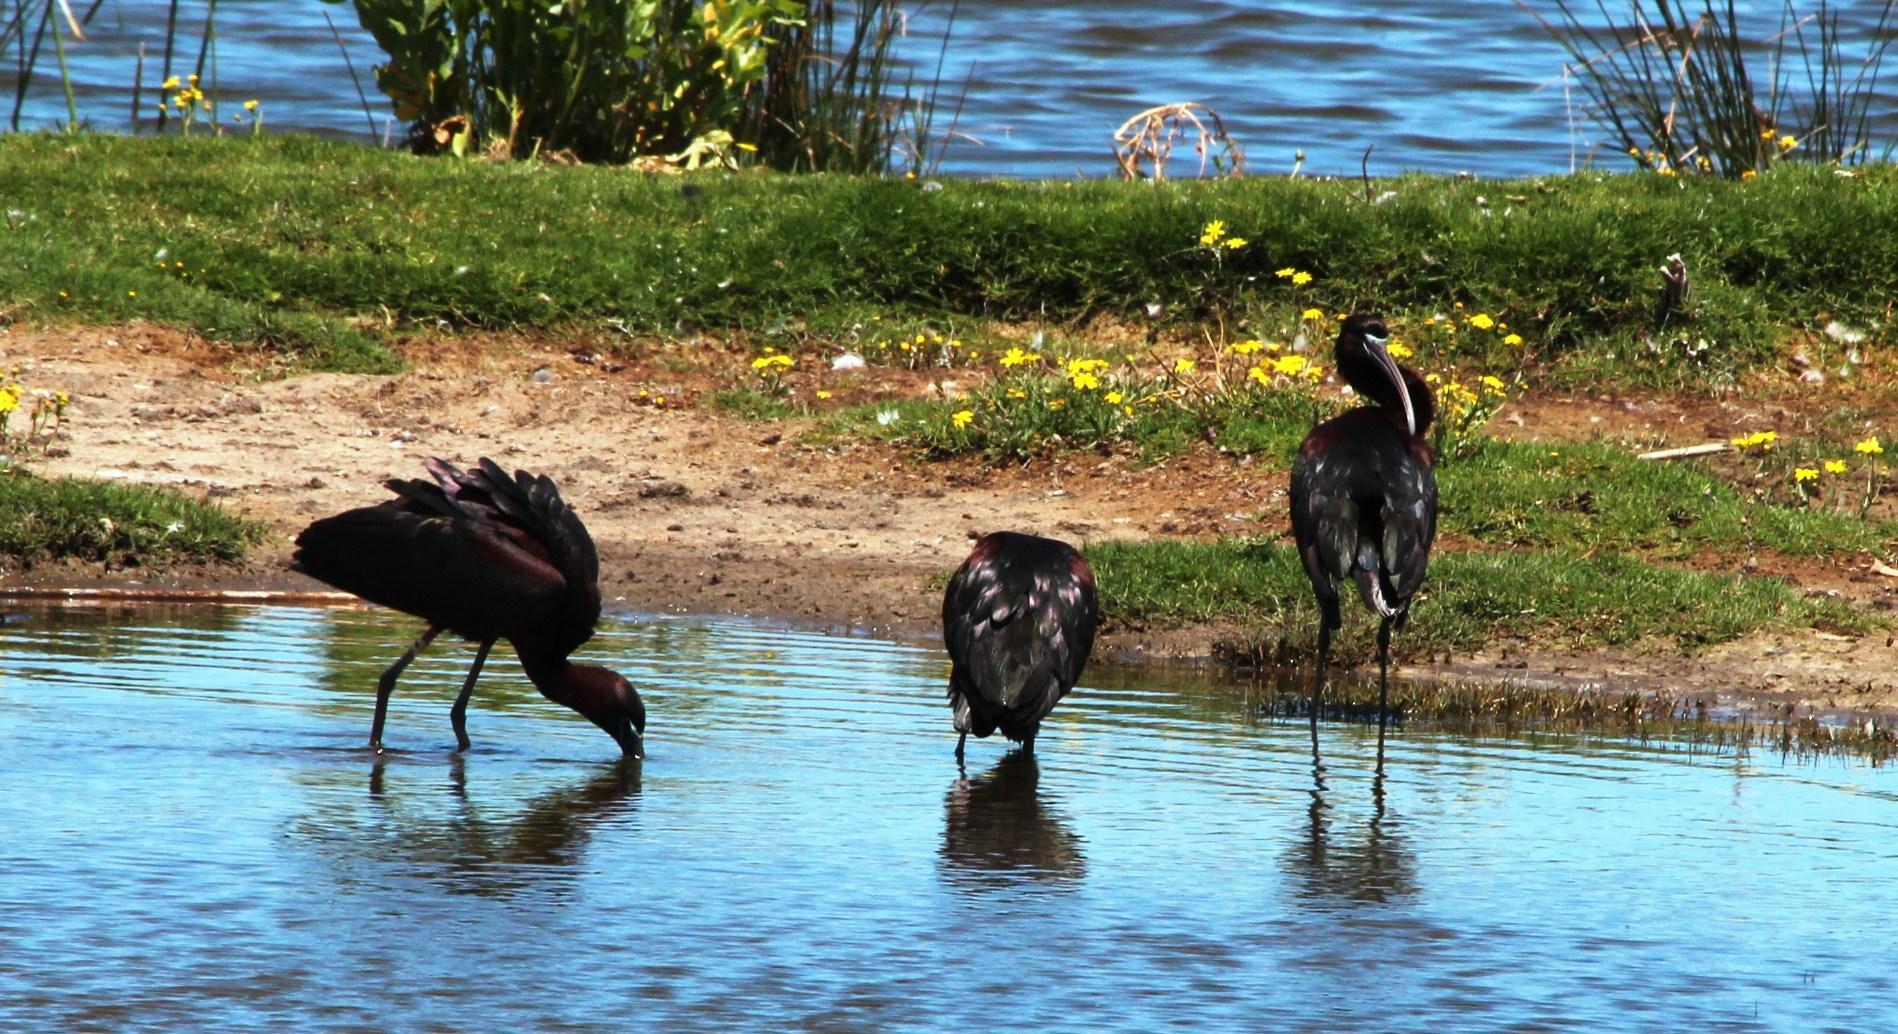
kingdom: Animalia
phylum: Chordata
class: Aves
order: Pelecaniformes
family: Threskiornithidae
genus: Plegadis
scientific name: Plegadis falcinellus
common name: Glossy ibis
